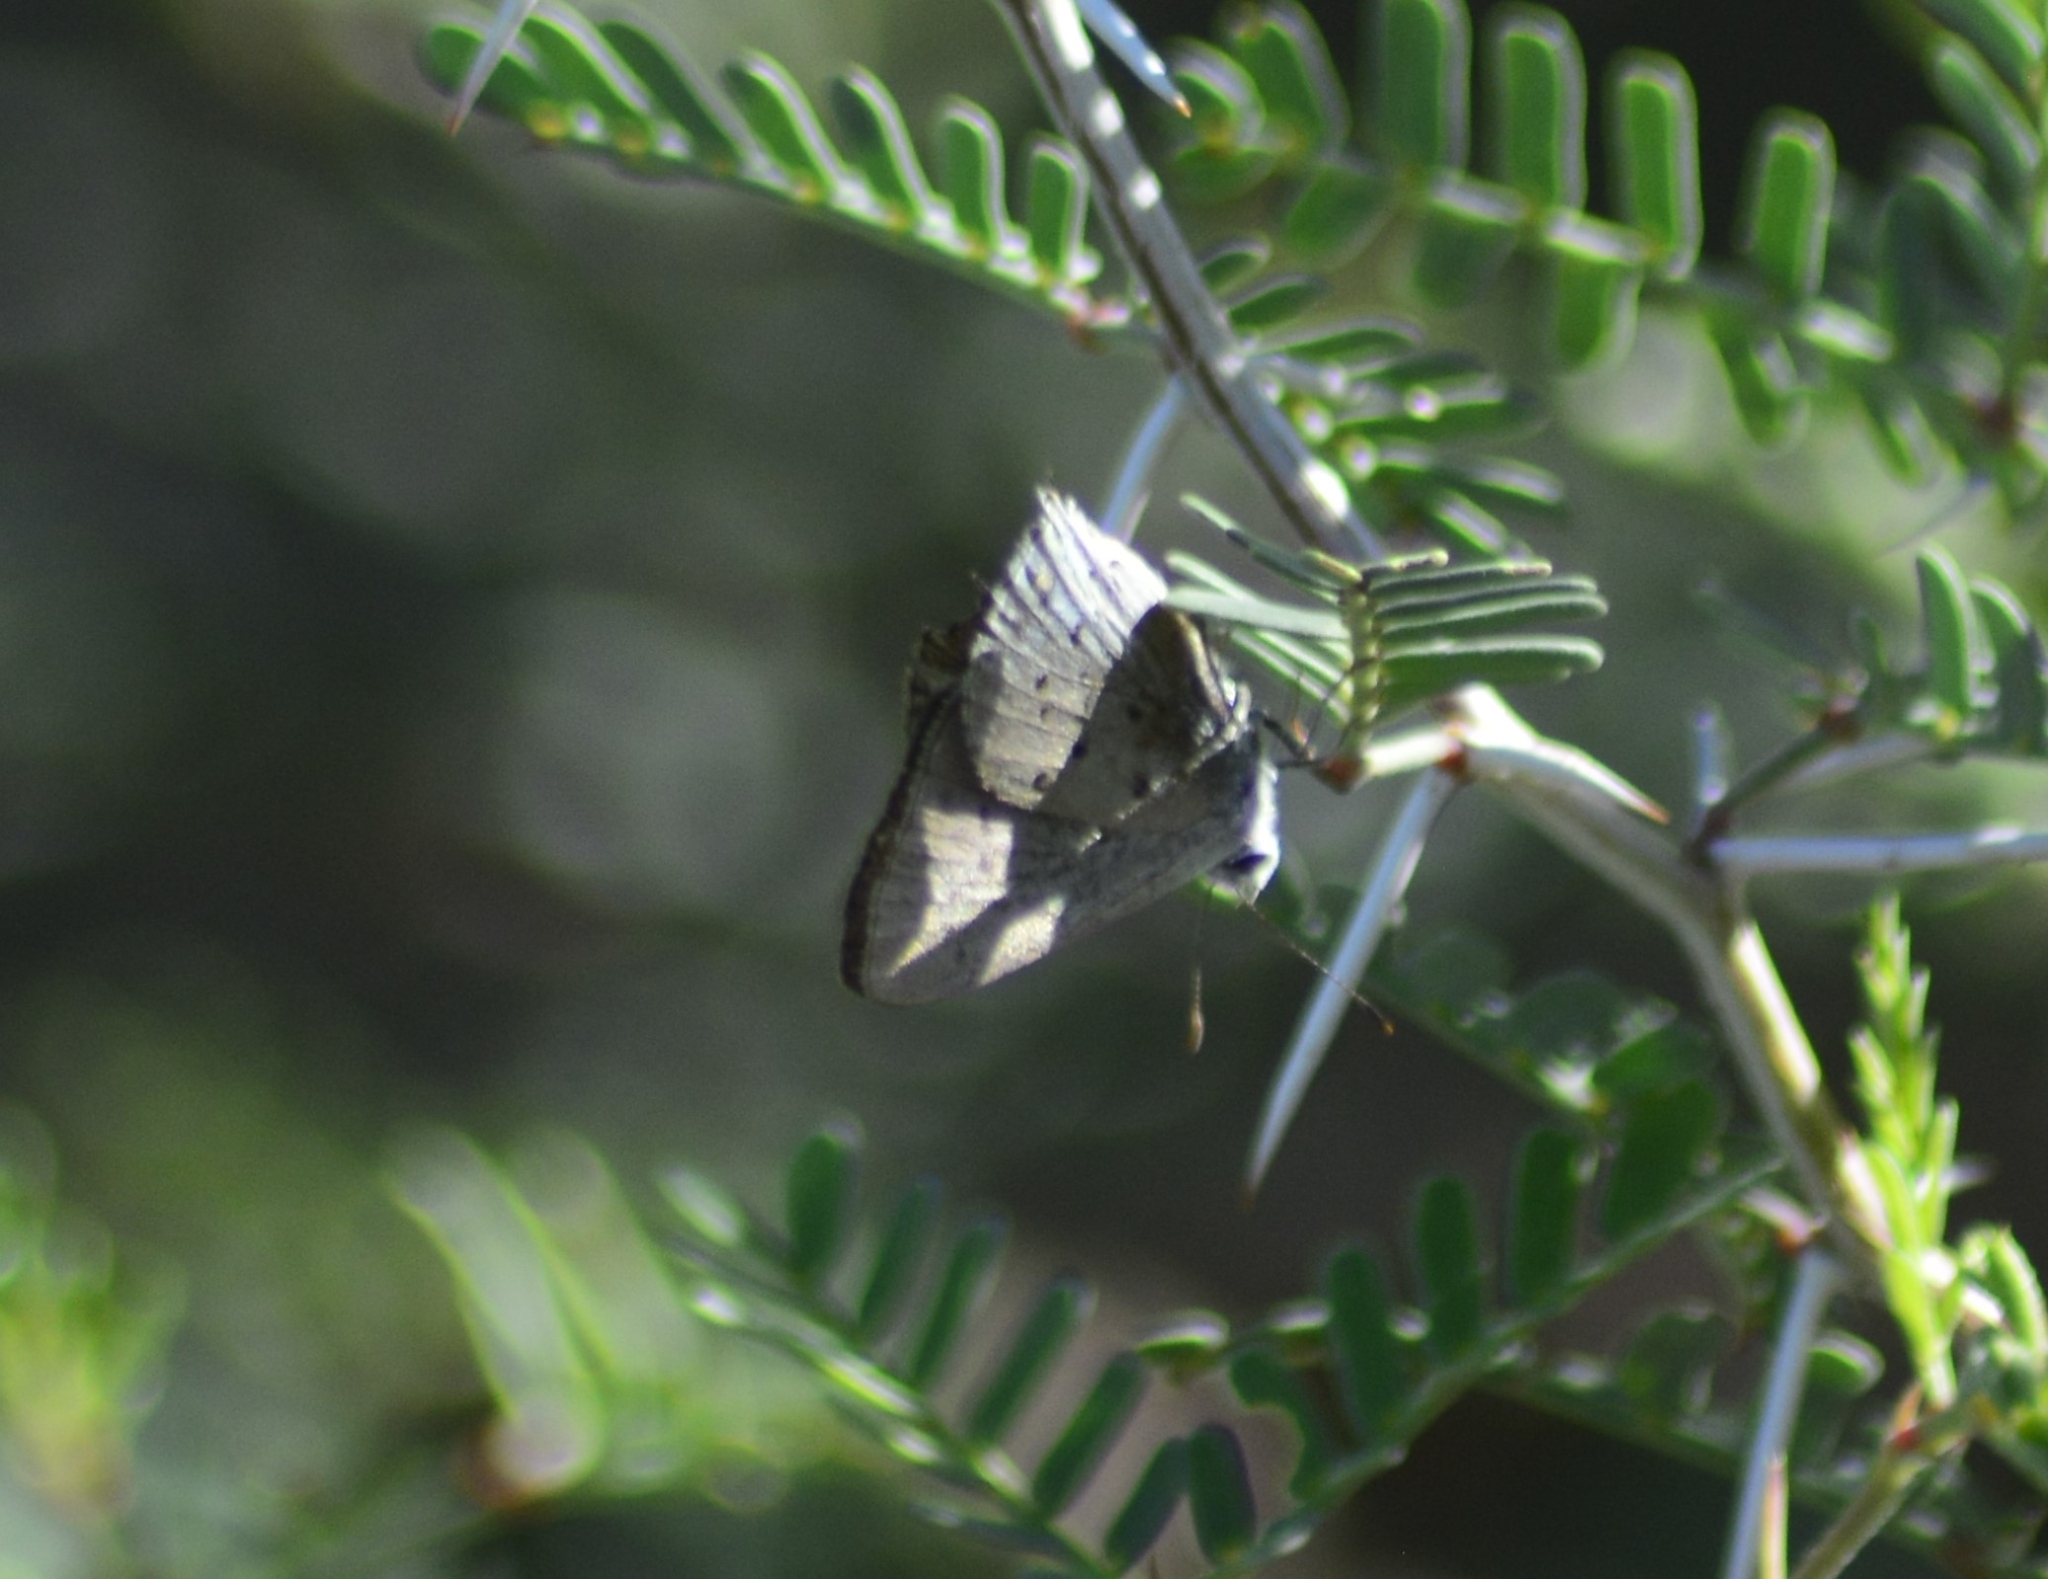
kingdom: Animalia
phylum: Arthropoda
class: Insecta
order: Lepidoptera
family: Lycaenidae
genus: Strymon
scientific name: Strymon eurytulus
